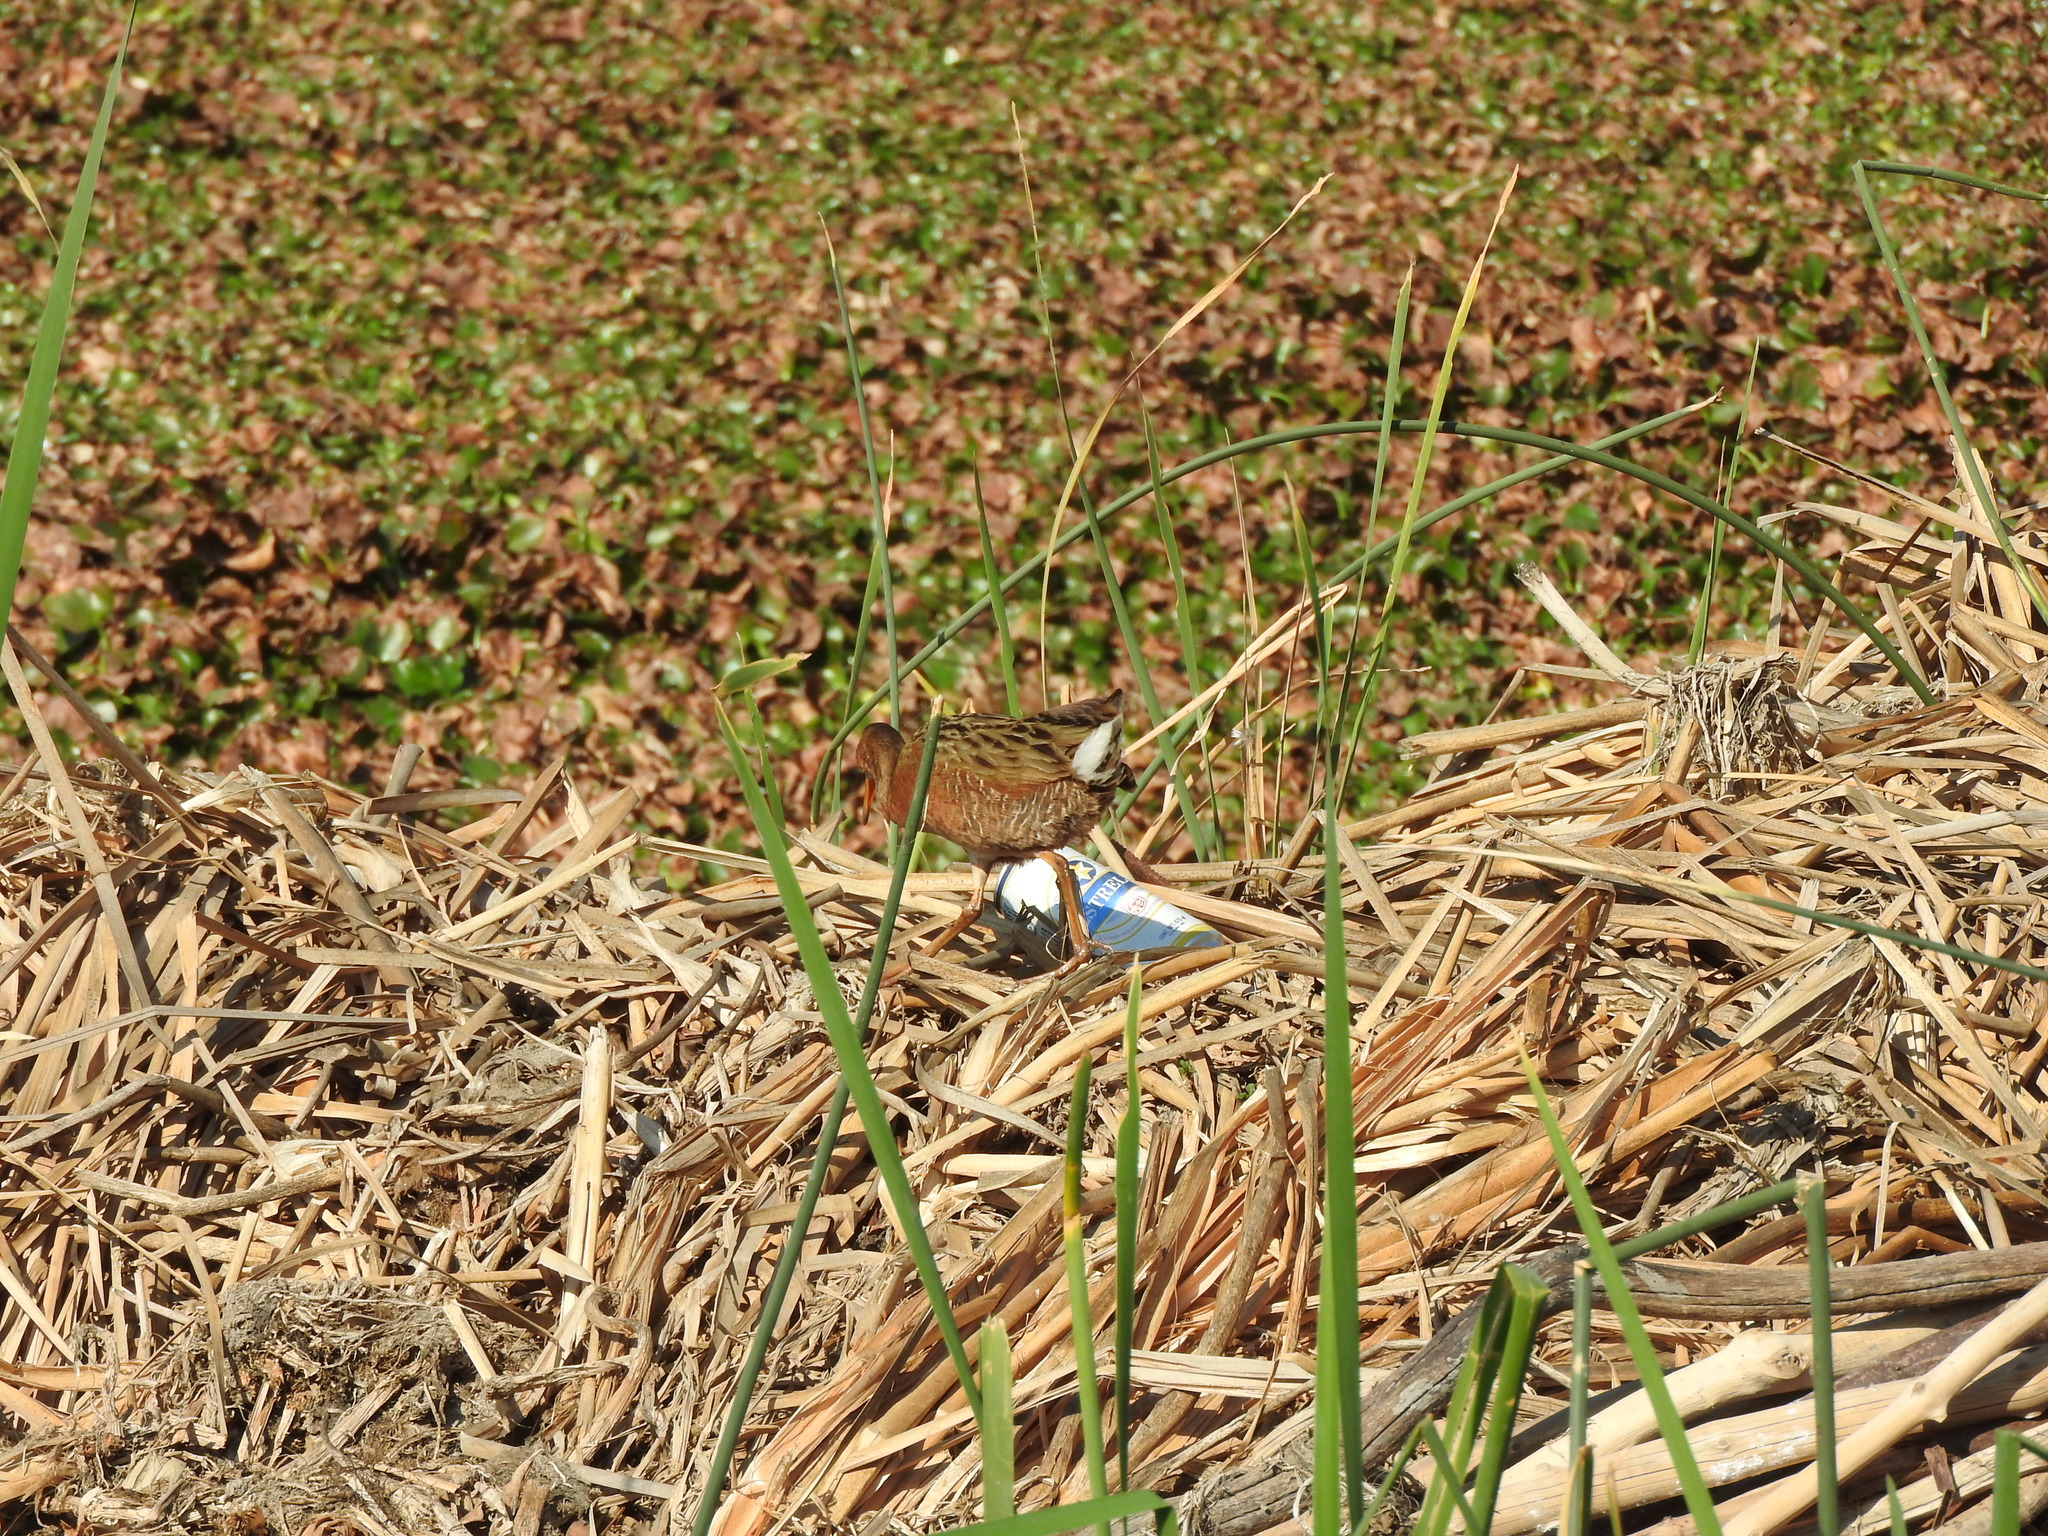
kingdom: Animalia
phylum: Chordata
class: Aves
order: Gruiformes
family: Rallidae
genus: Rallus
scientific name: Rallus tenuirostris
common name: Aztec rail
